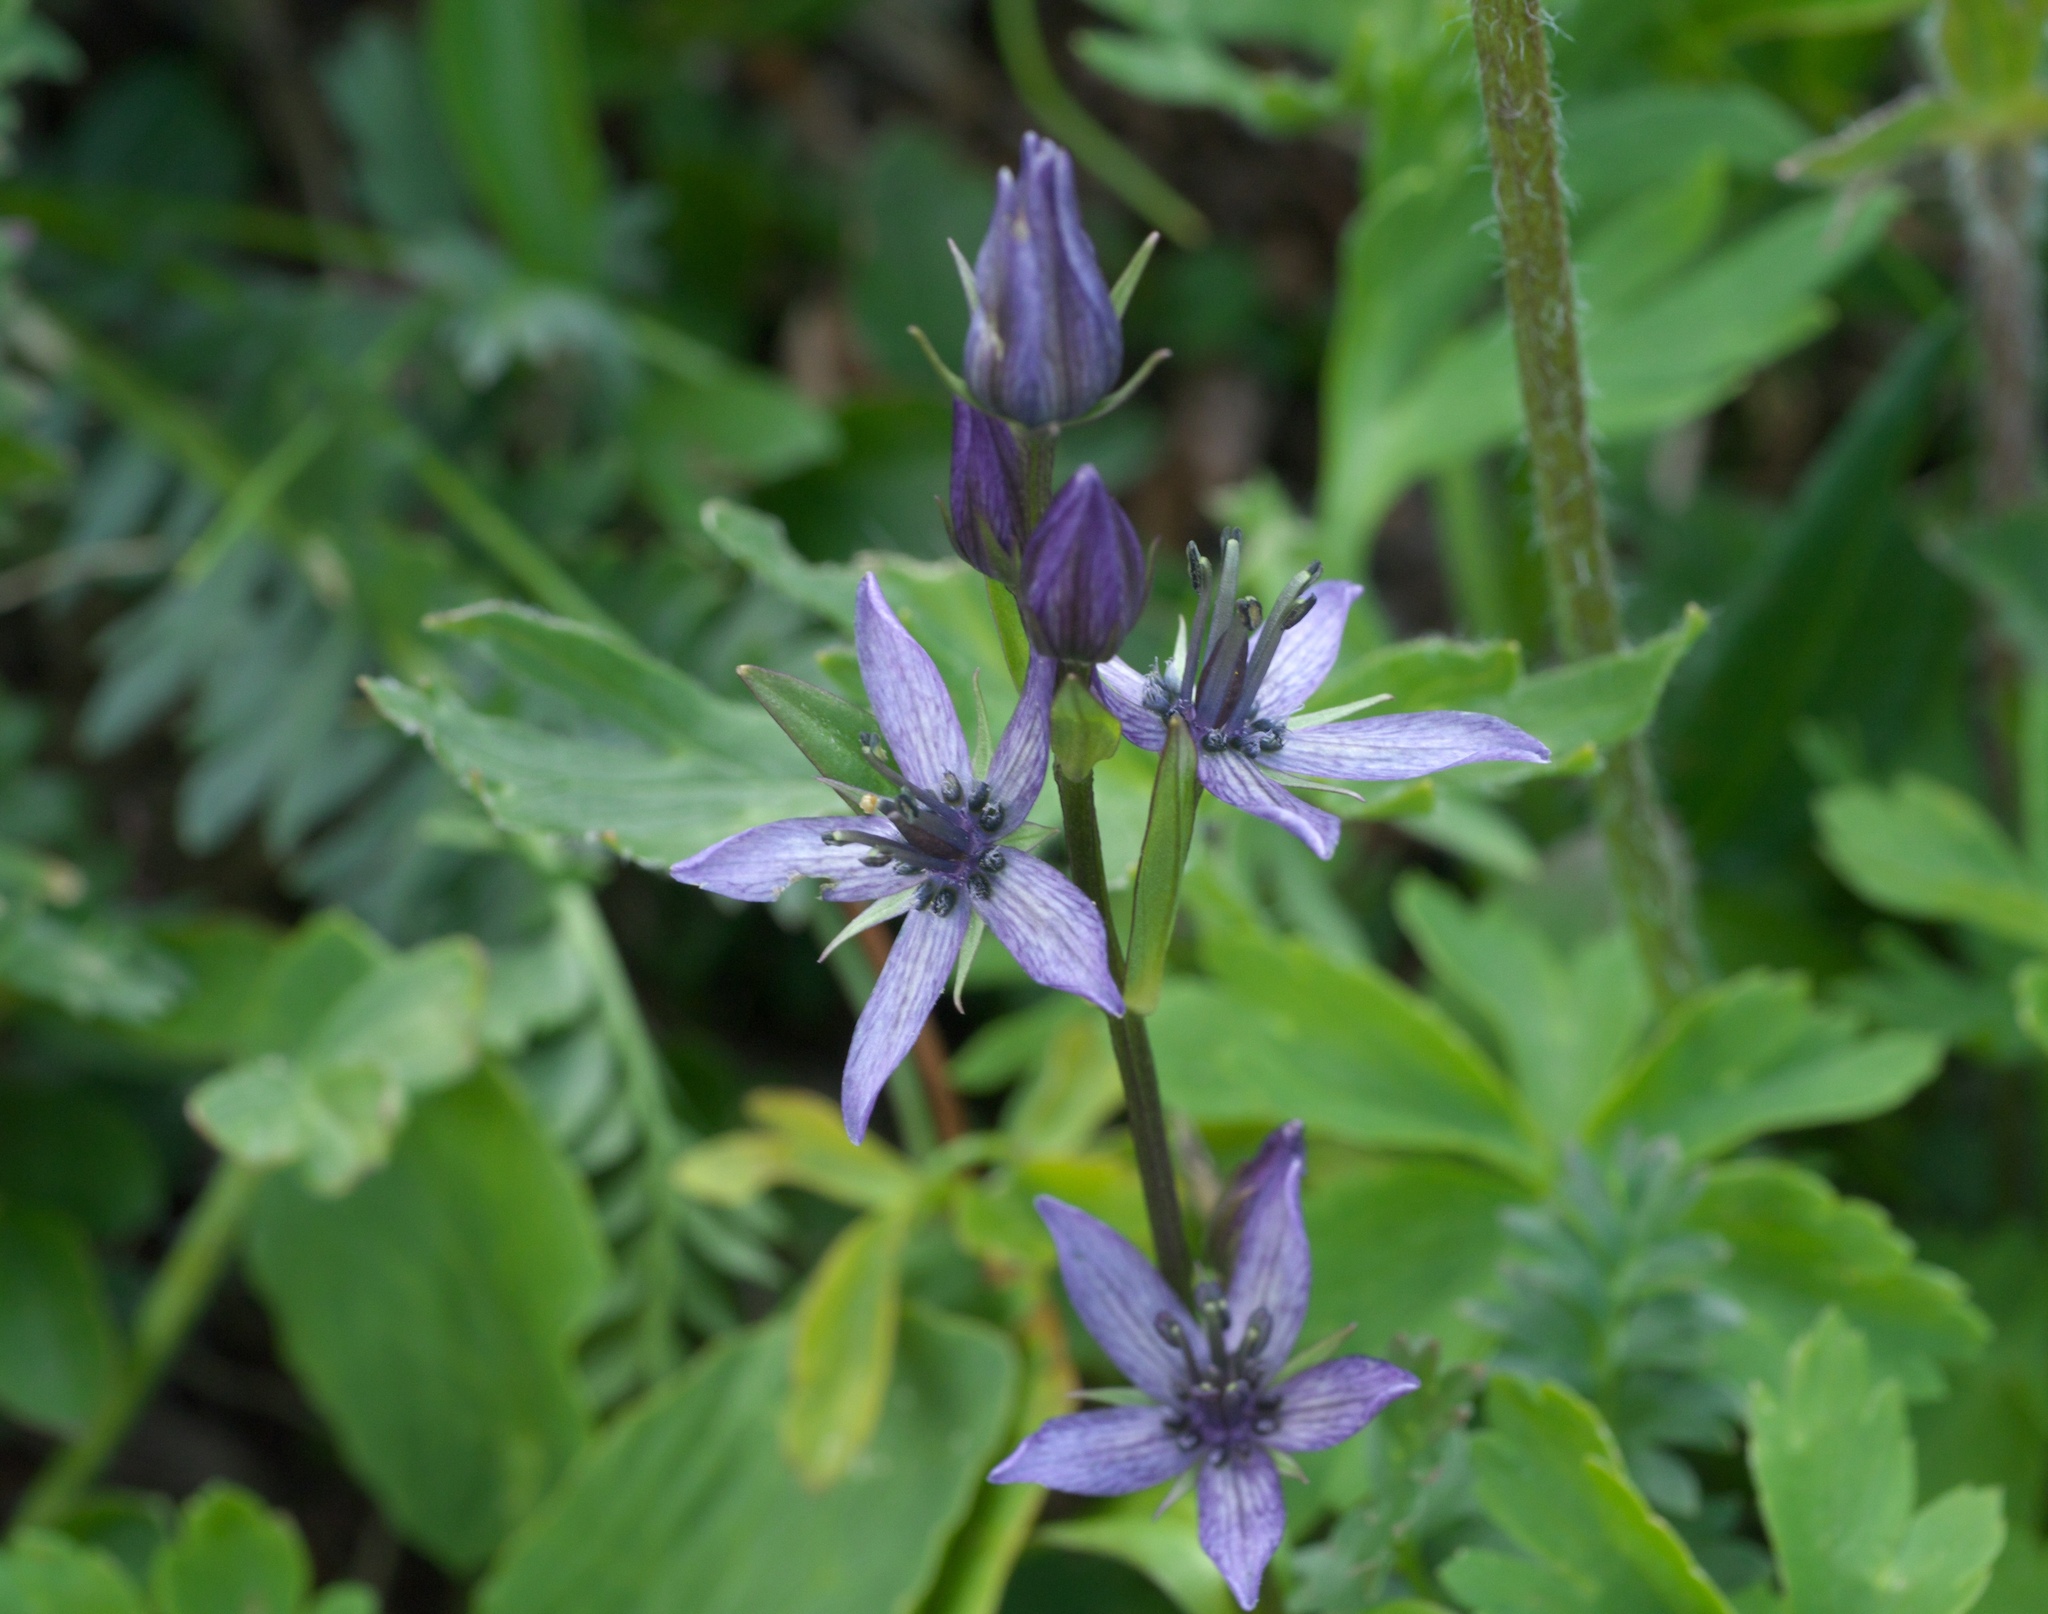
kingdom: Plantae
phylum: Tracheophyta
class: Magnoliopsida
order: Gentianales
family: Gentianaceae
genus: Swertia
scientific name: Swertia perennis
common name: Alpine bog swertia
